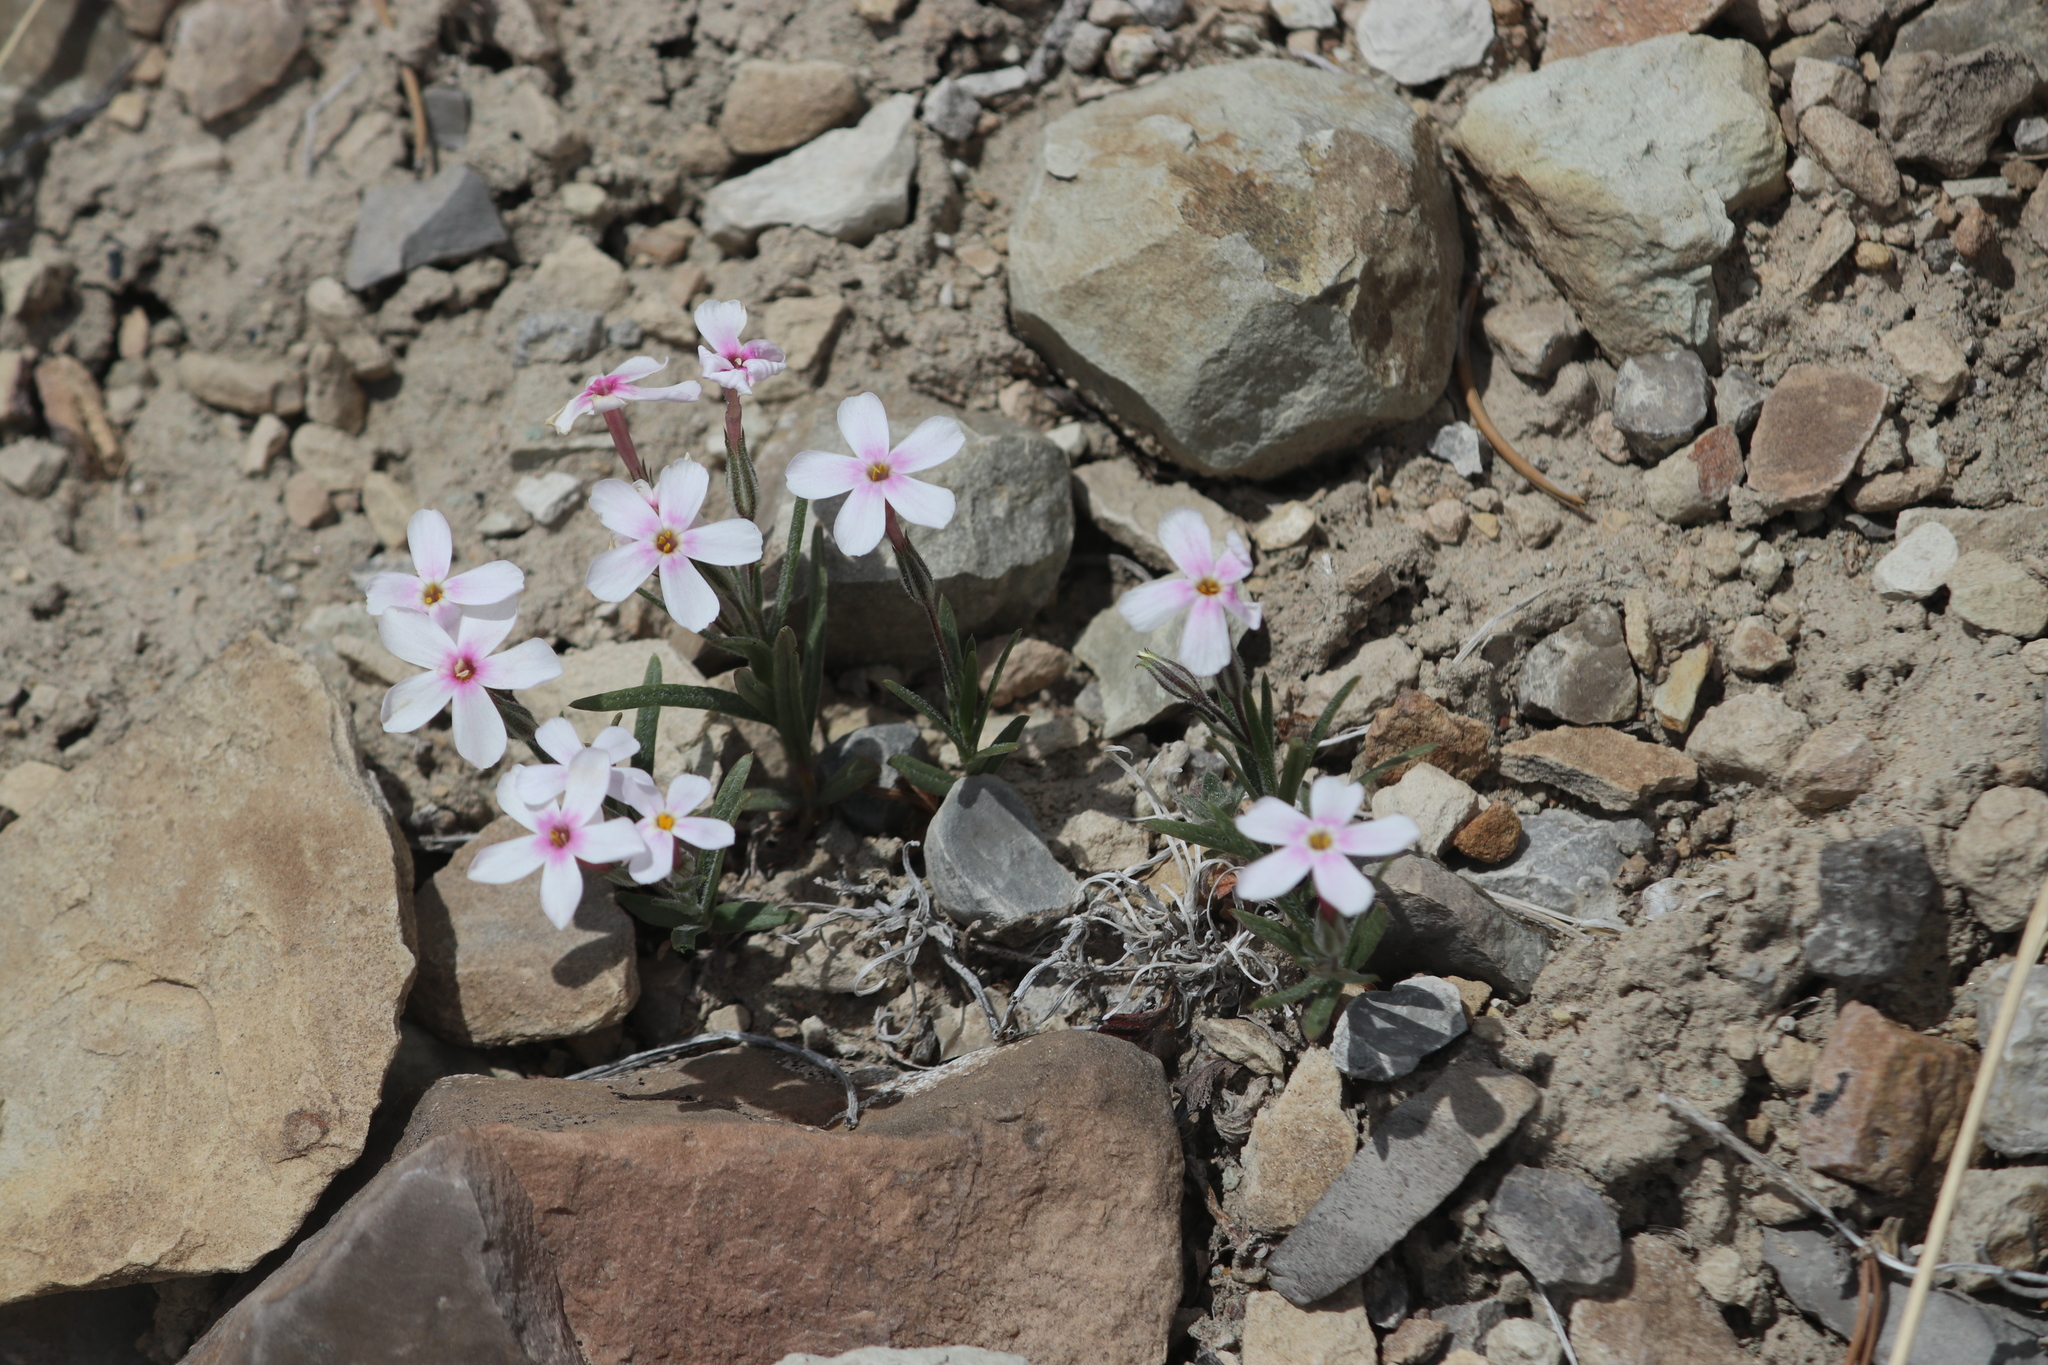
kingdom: Plantae
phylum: Tracheophyta
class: Magnoliopsida
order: Ericales
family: Polemoniaceae
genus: Phlox
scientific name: Phlox longifolia
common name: Longleaf phlox
